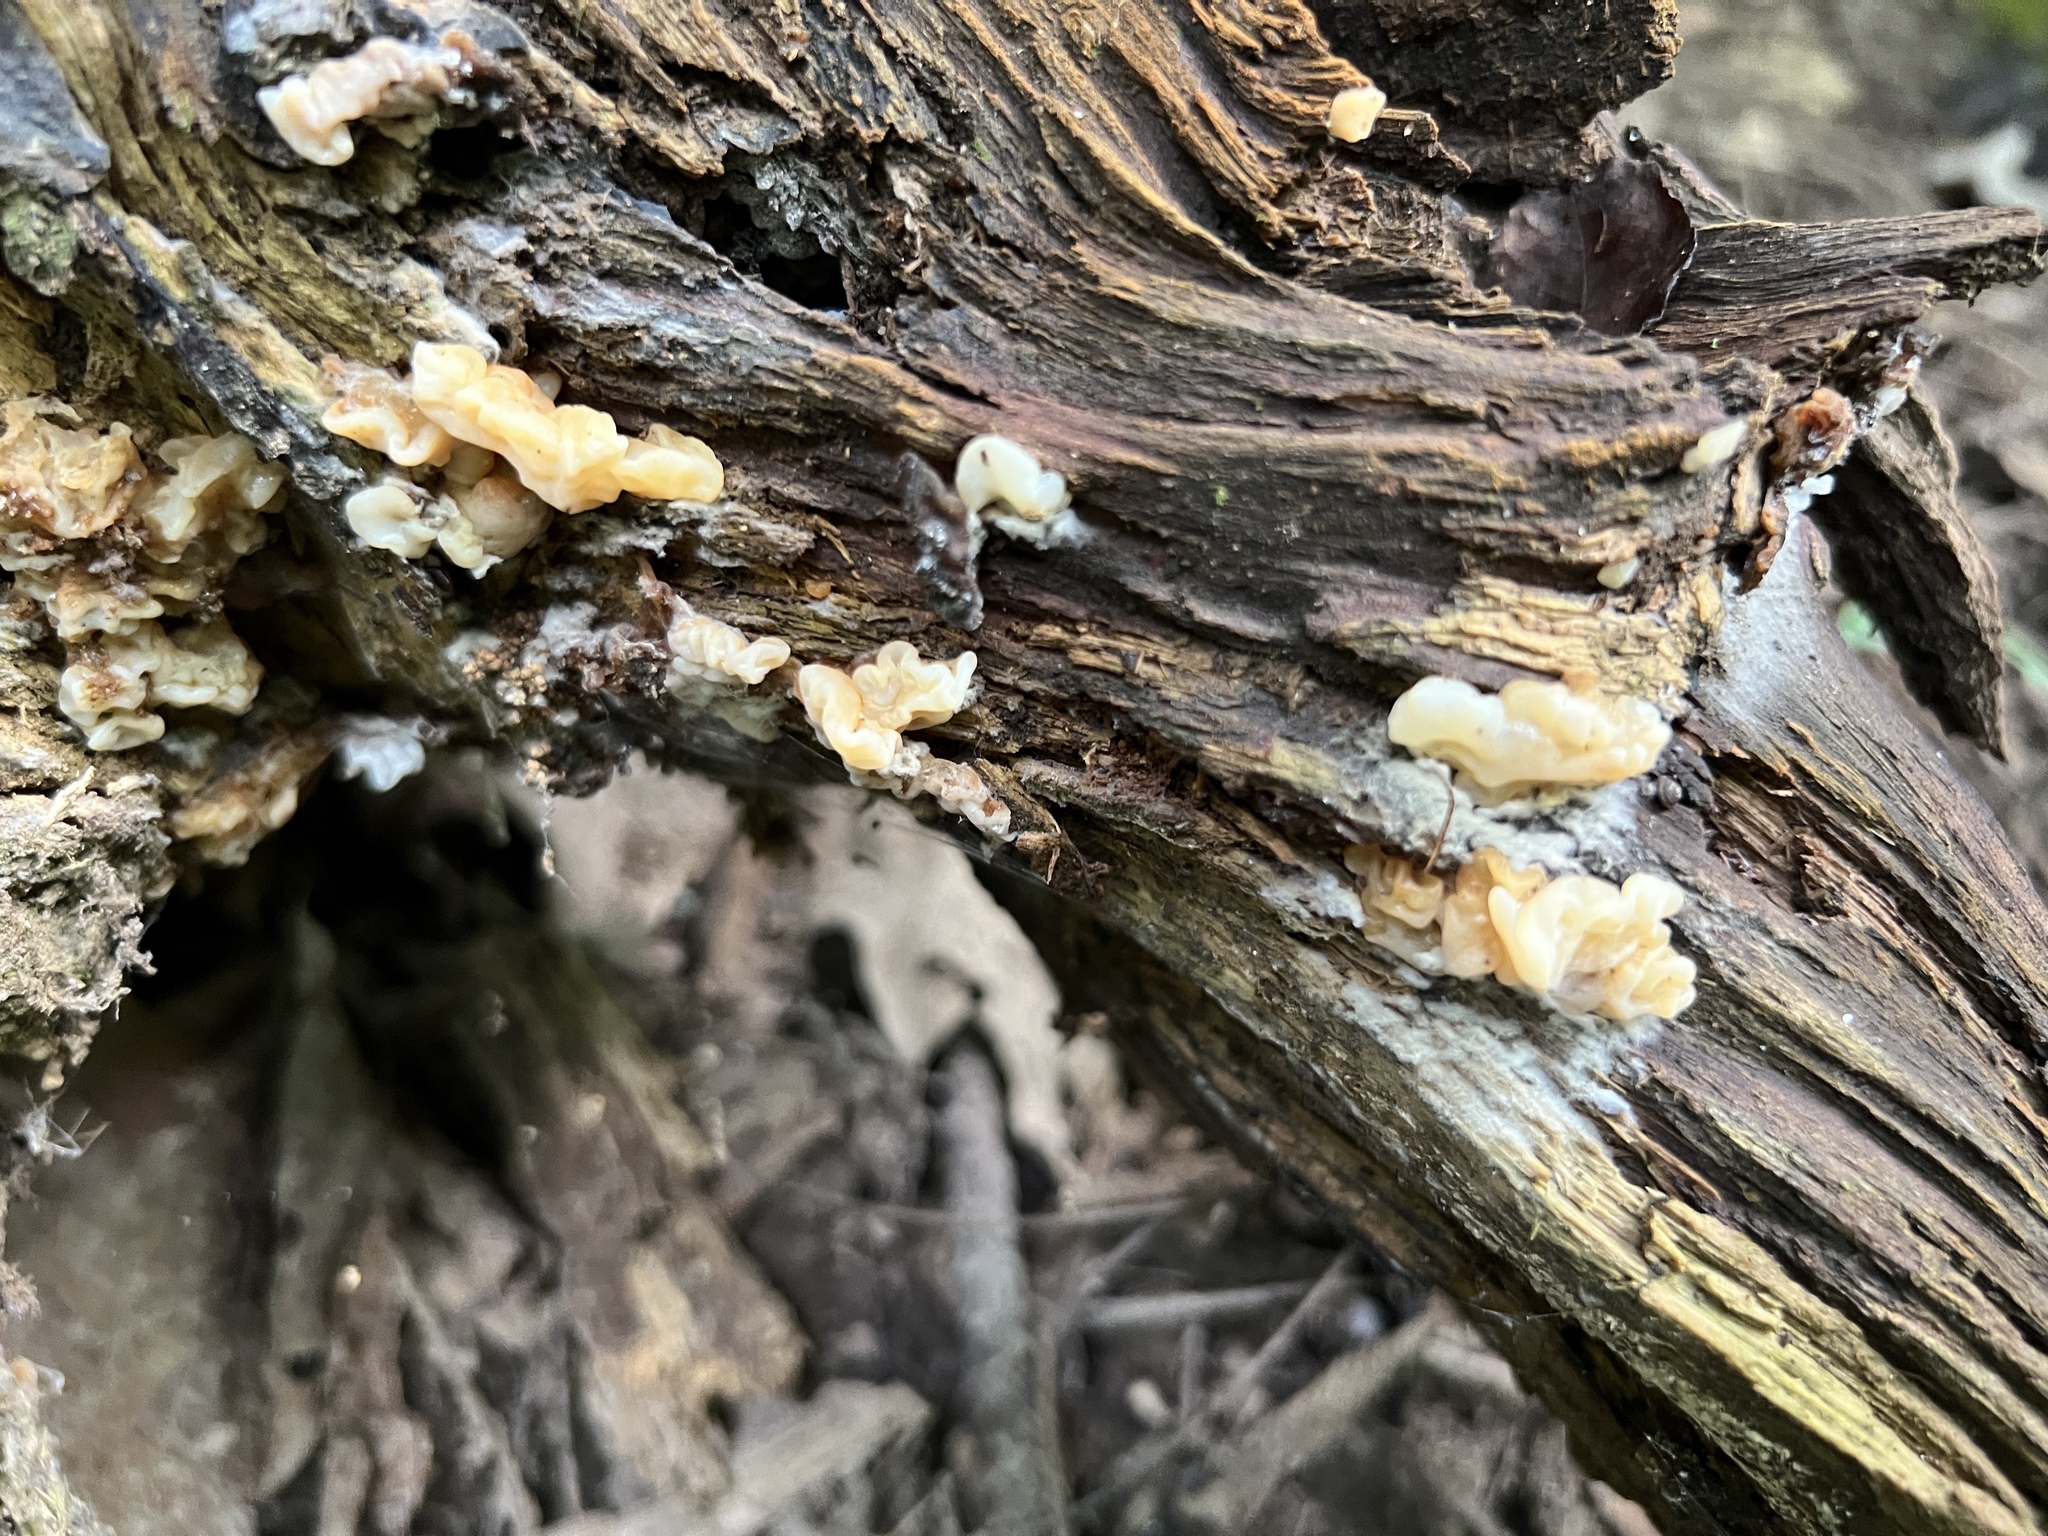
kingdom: Fungi
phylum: Basidiomycota
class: Agaricomycetes
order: Auriculariales
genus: Ductifera
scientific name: Ductifera pululahuana
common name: White jelly fungus
